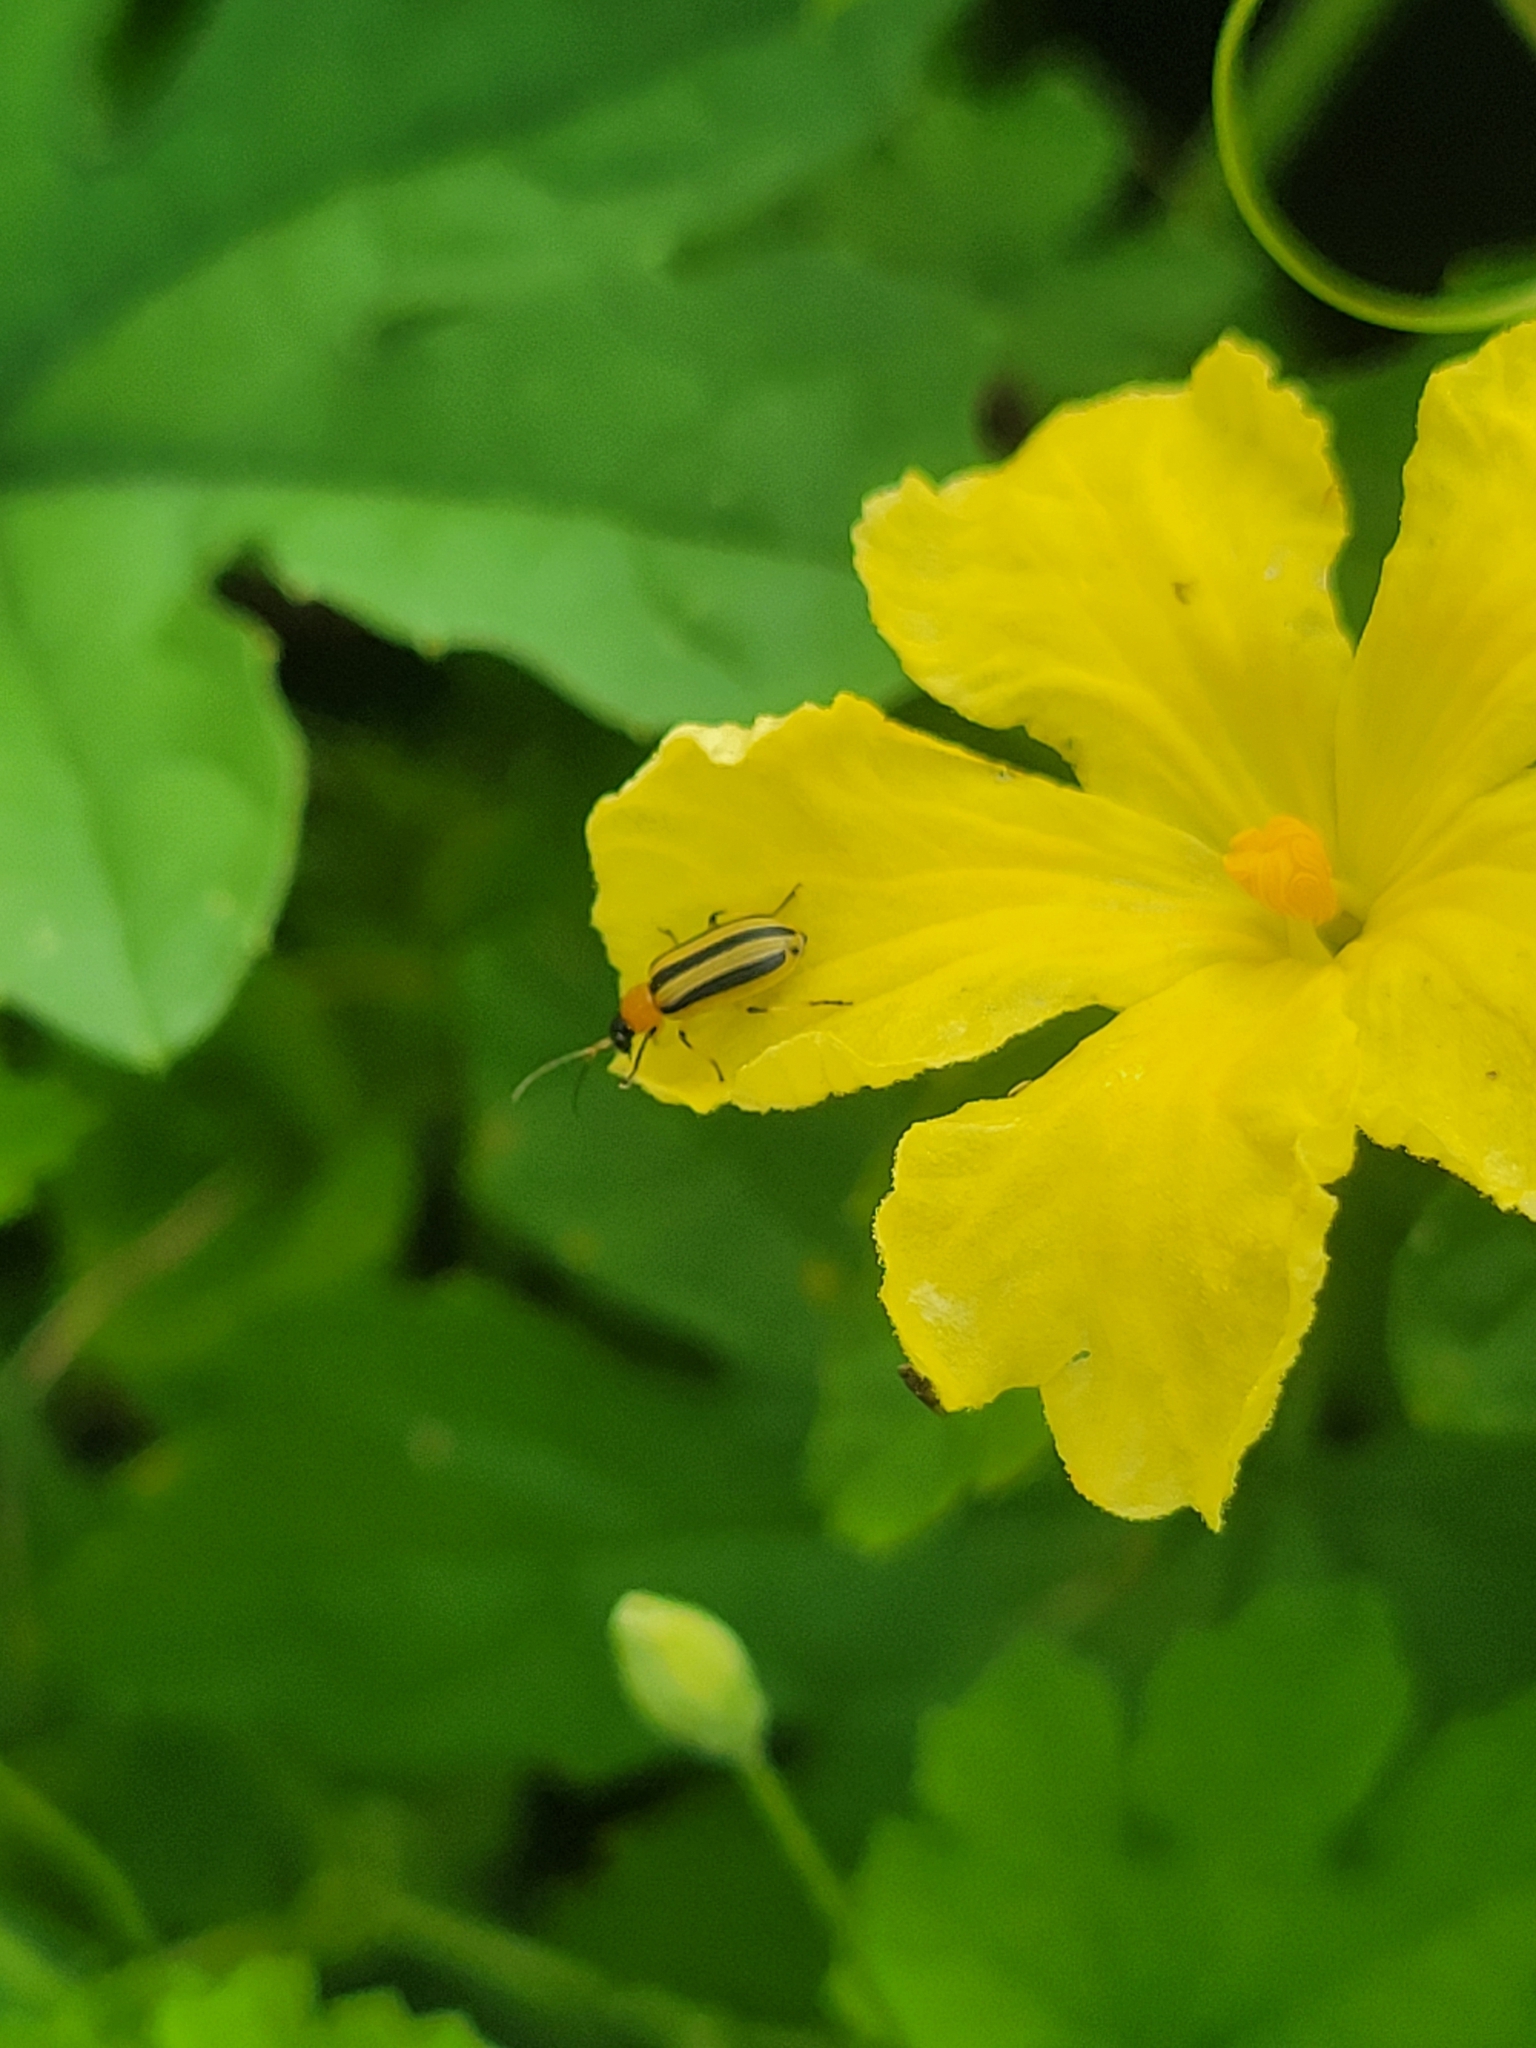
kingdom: Animalia
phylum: Arthropoda
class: Insecta
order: Coleoptera
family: Chrysomelidae
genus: Acalymma
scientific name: Acalymma vittatum
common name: Striped cucumber beetle
